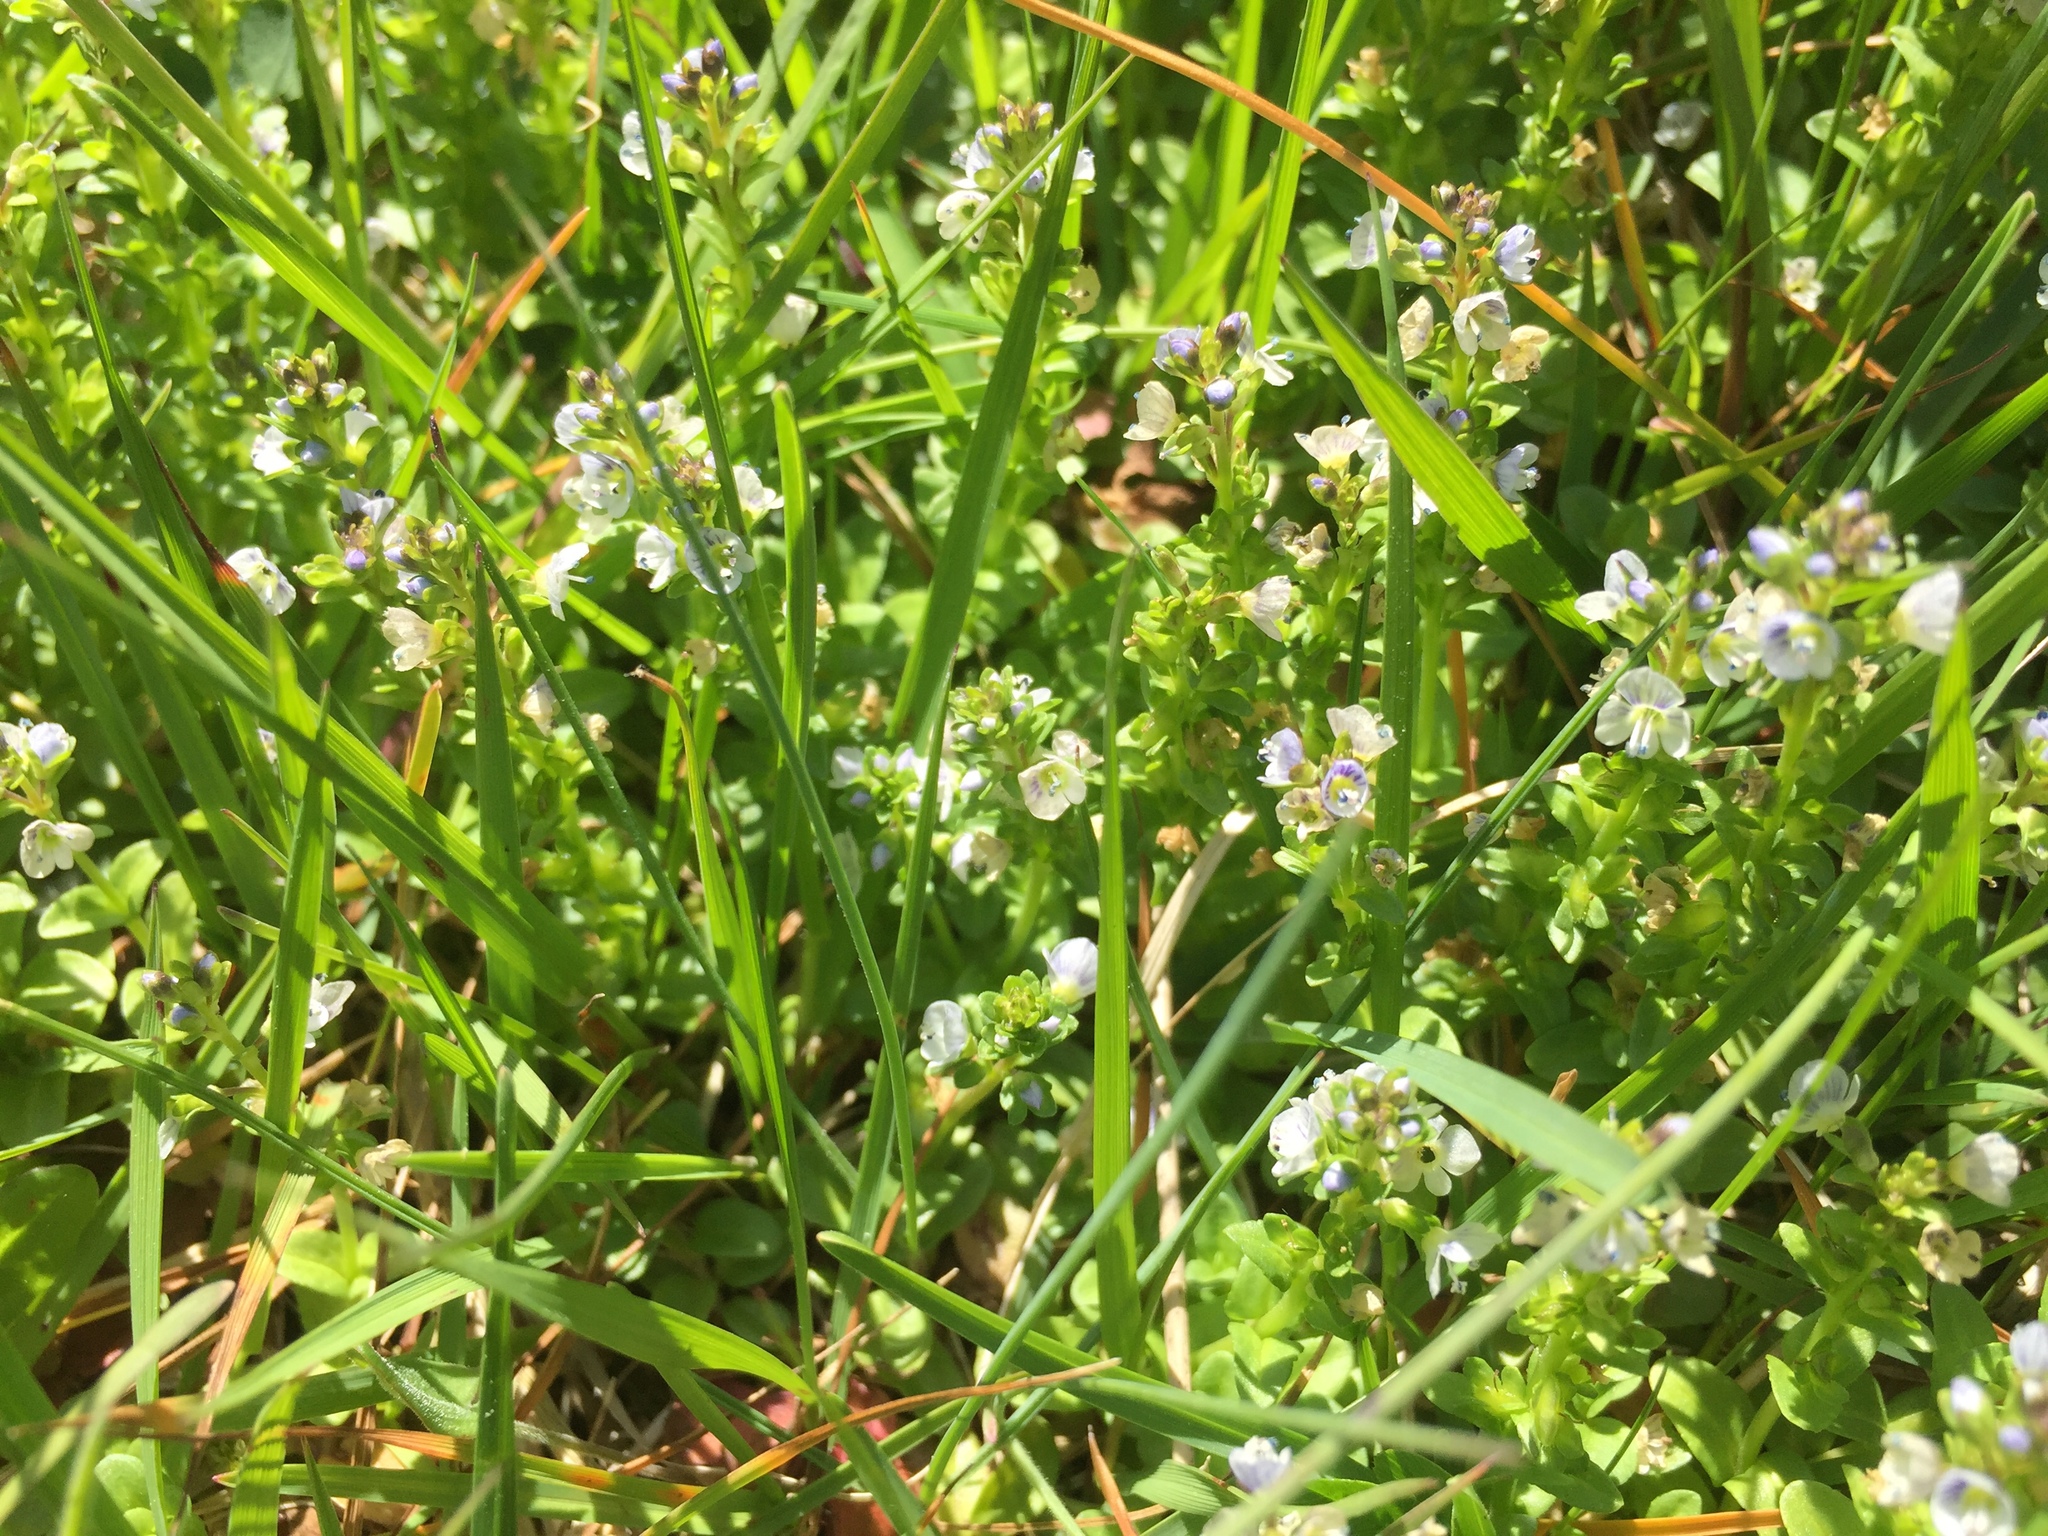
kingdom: Plantae
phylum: Tracheophyta
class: Magnoliopsida
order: Lamiales
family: Plantaginaceae
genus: Veronica
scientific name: Veronica serpyllifolia
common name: Thyme-leaved speedwell
